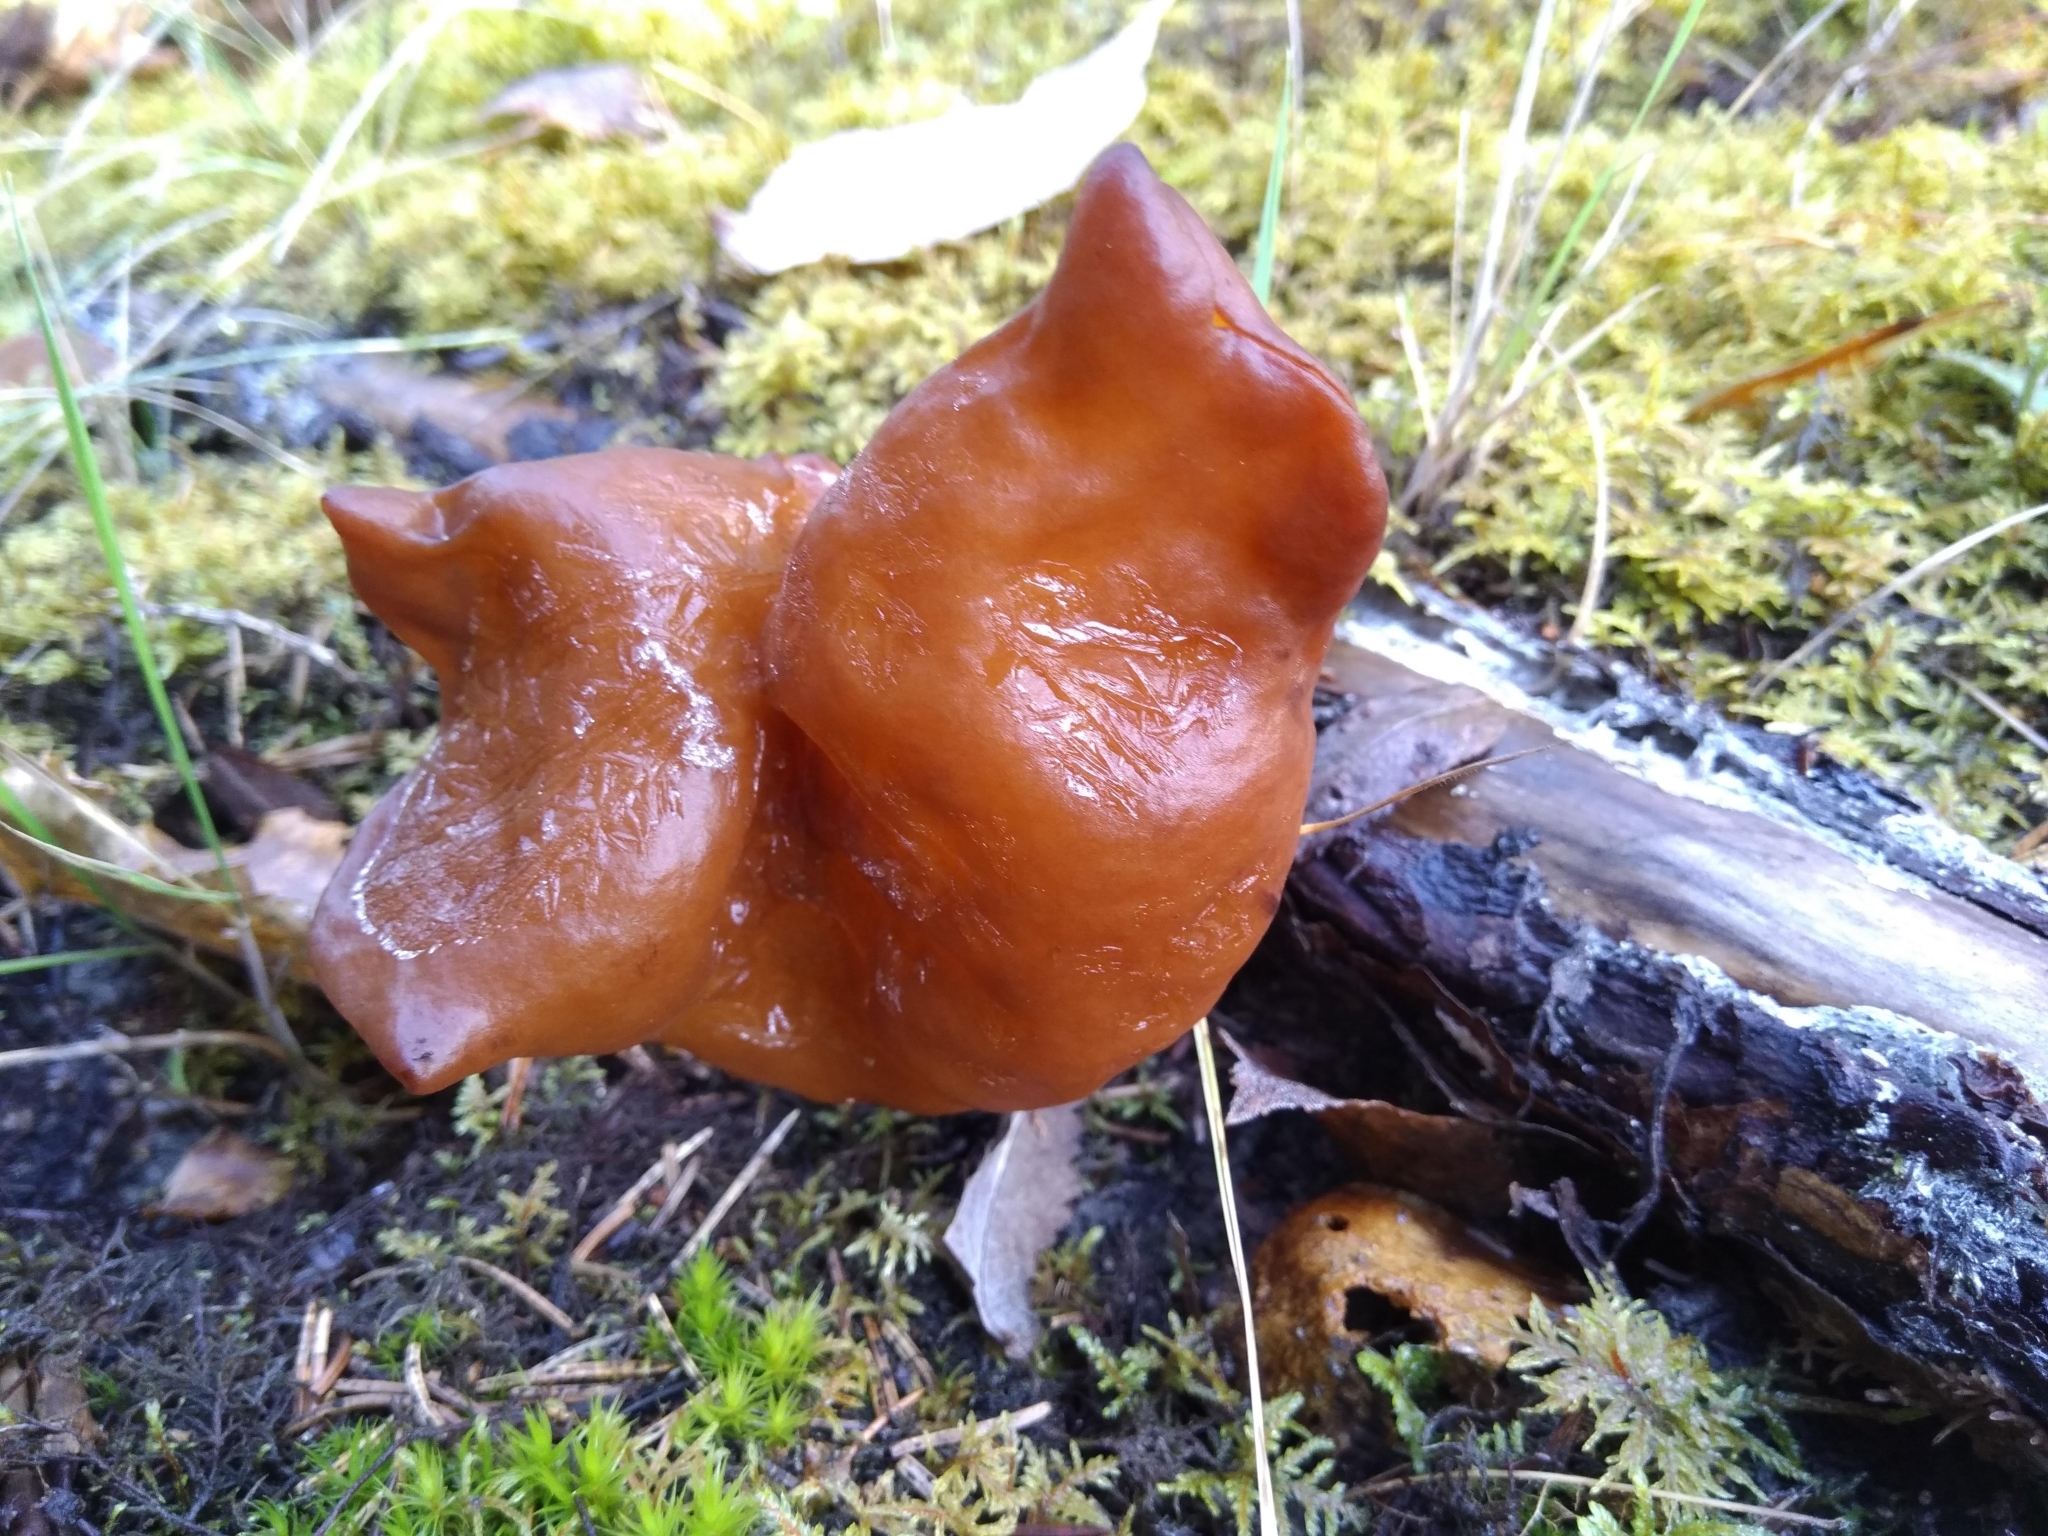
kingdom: Fungi
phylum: Ascomycota
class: Pezizomycetes
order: Pezizales
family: Discinaceae
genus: Gyromitra
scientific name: Gyromitra infula
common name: Pouched false morel
